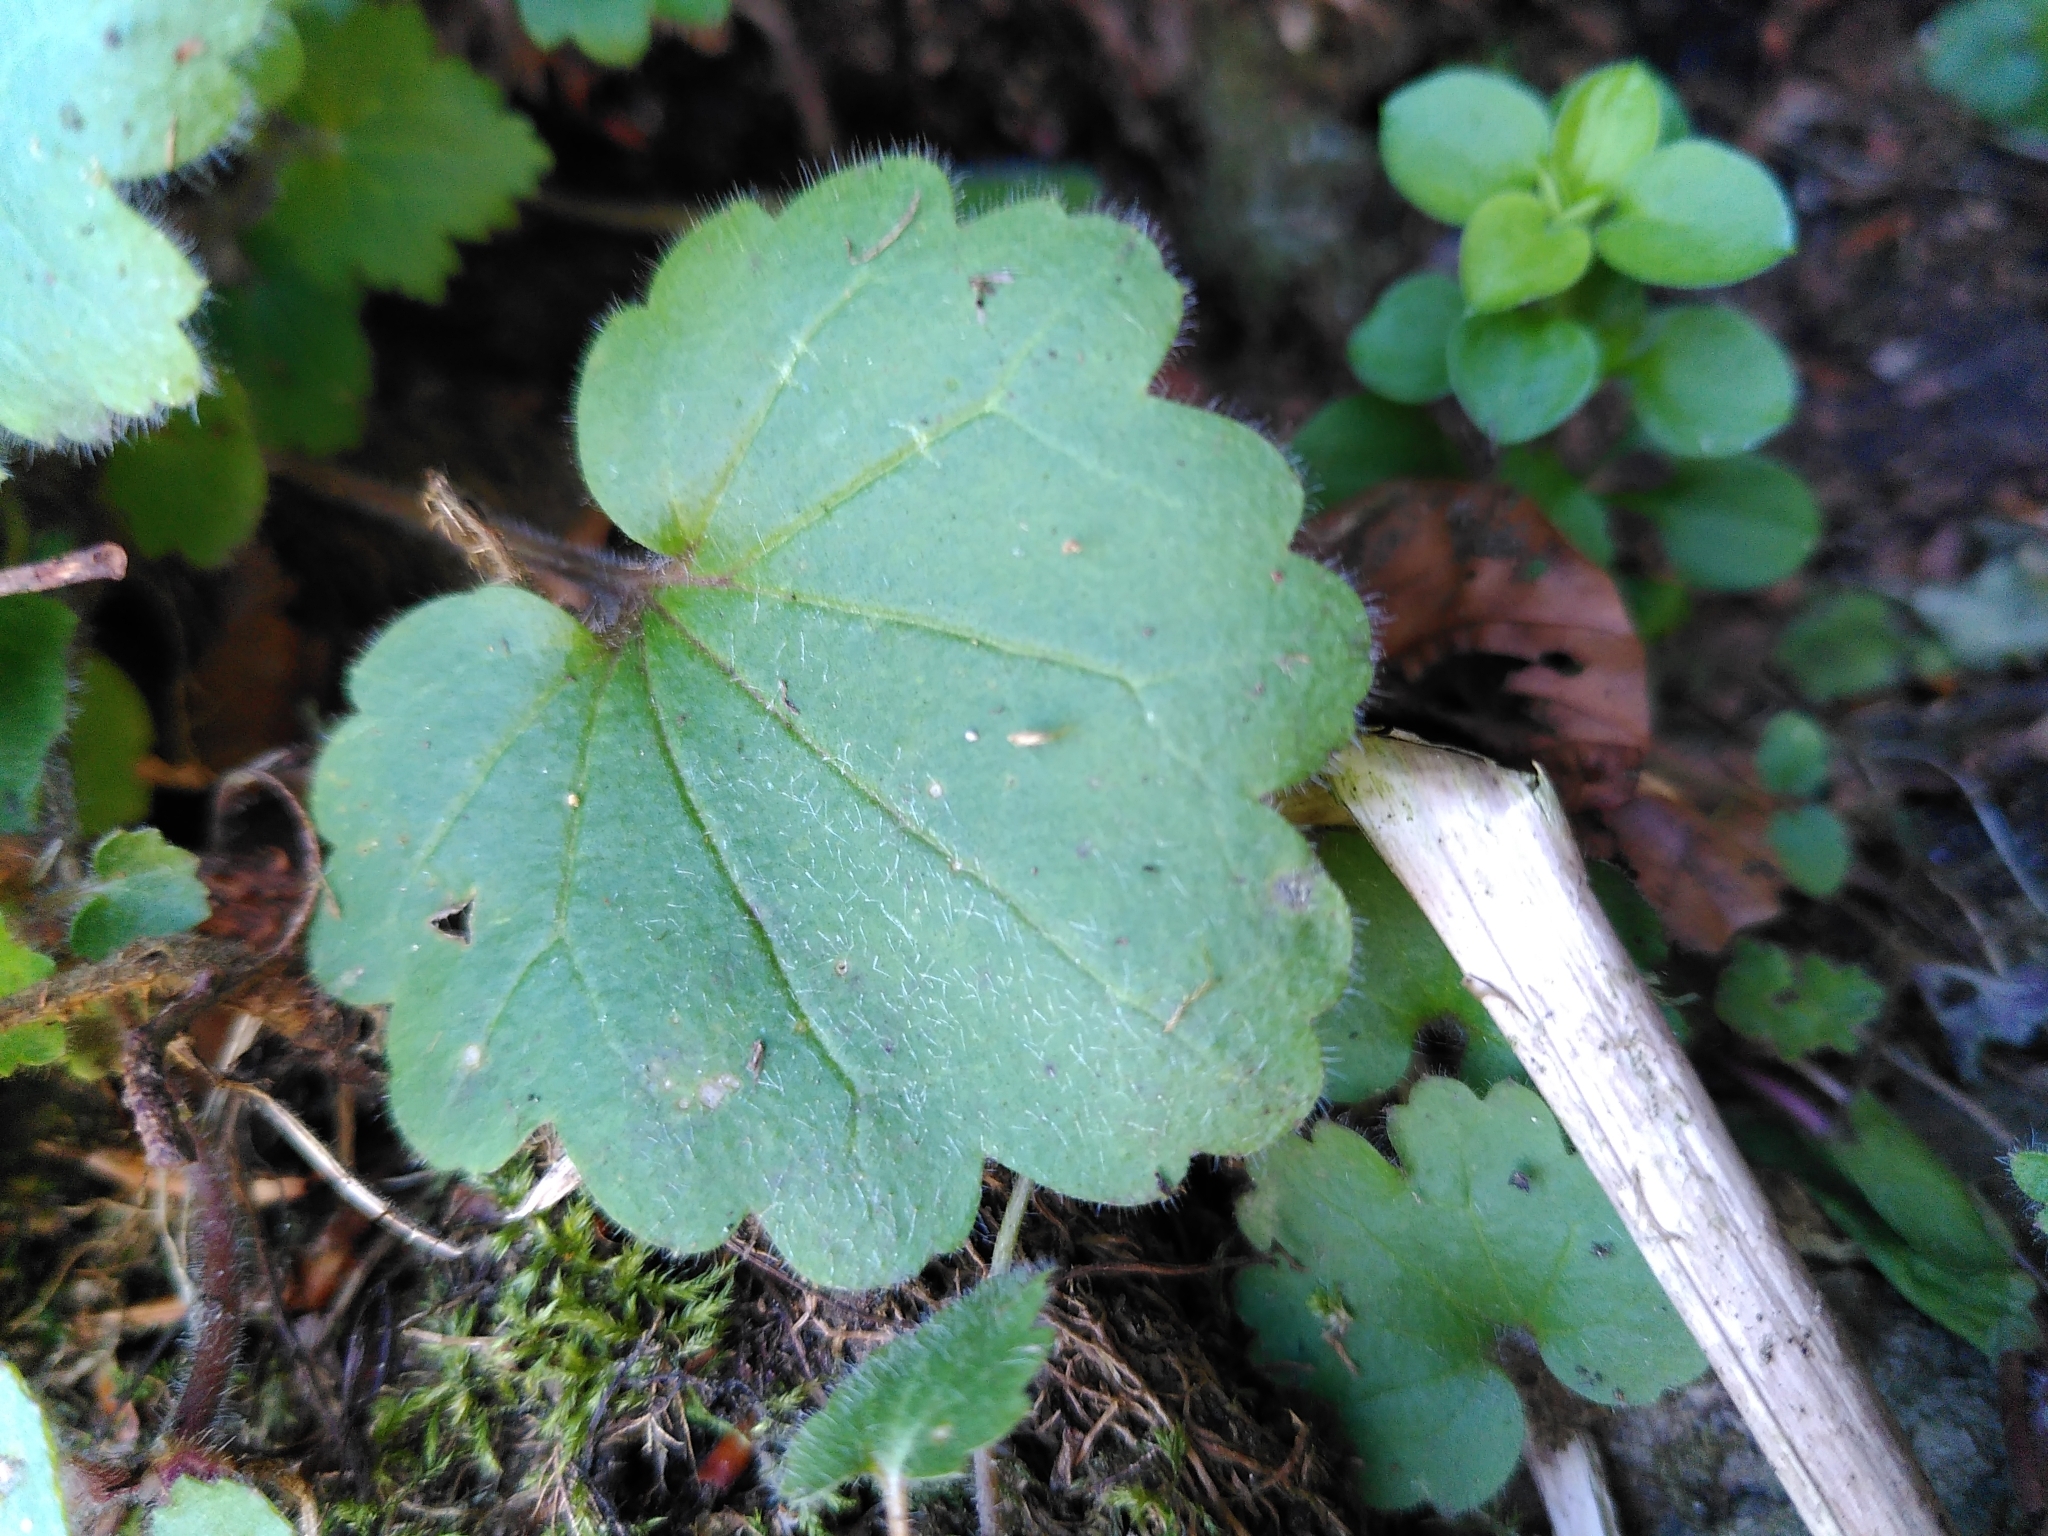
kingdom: Plantae
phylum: Tracheophyta
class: Magnoliopsida
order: Lamiales
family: Plantaginaceae
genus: Asarina
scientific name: Asarina procumbens
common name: Trailing snapdragon
